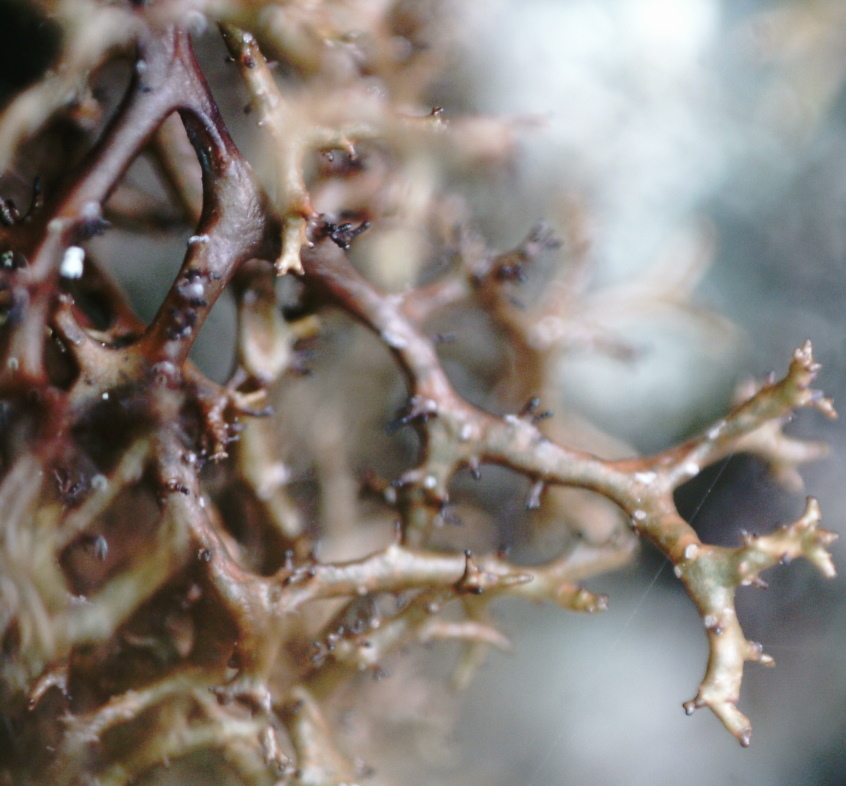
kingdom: Fungi
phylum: Ascomycota
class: Lecanoromycetes
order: Lecanorales
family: Parmeliaceae
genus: Cetraria
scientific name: Cetraria muricata
